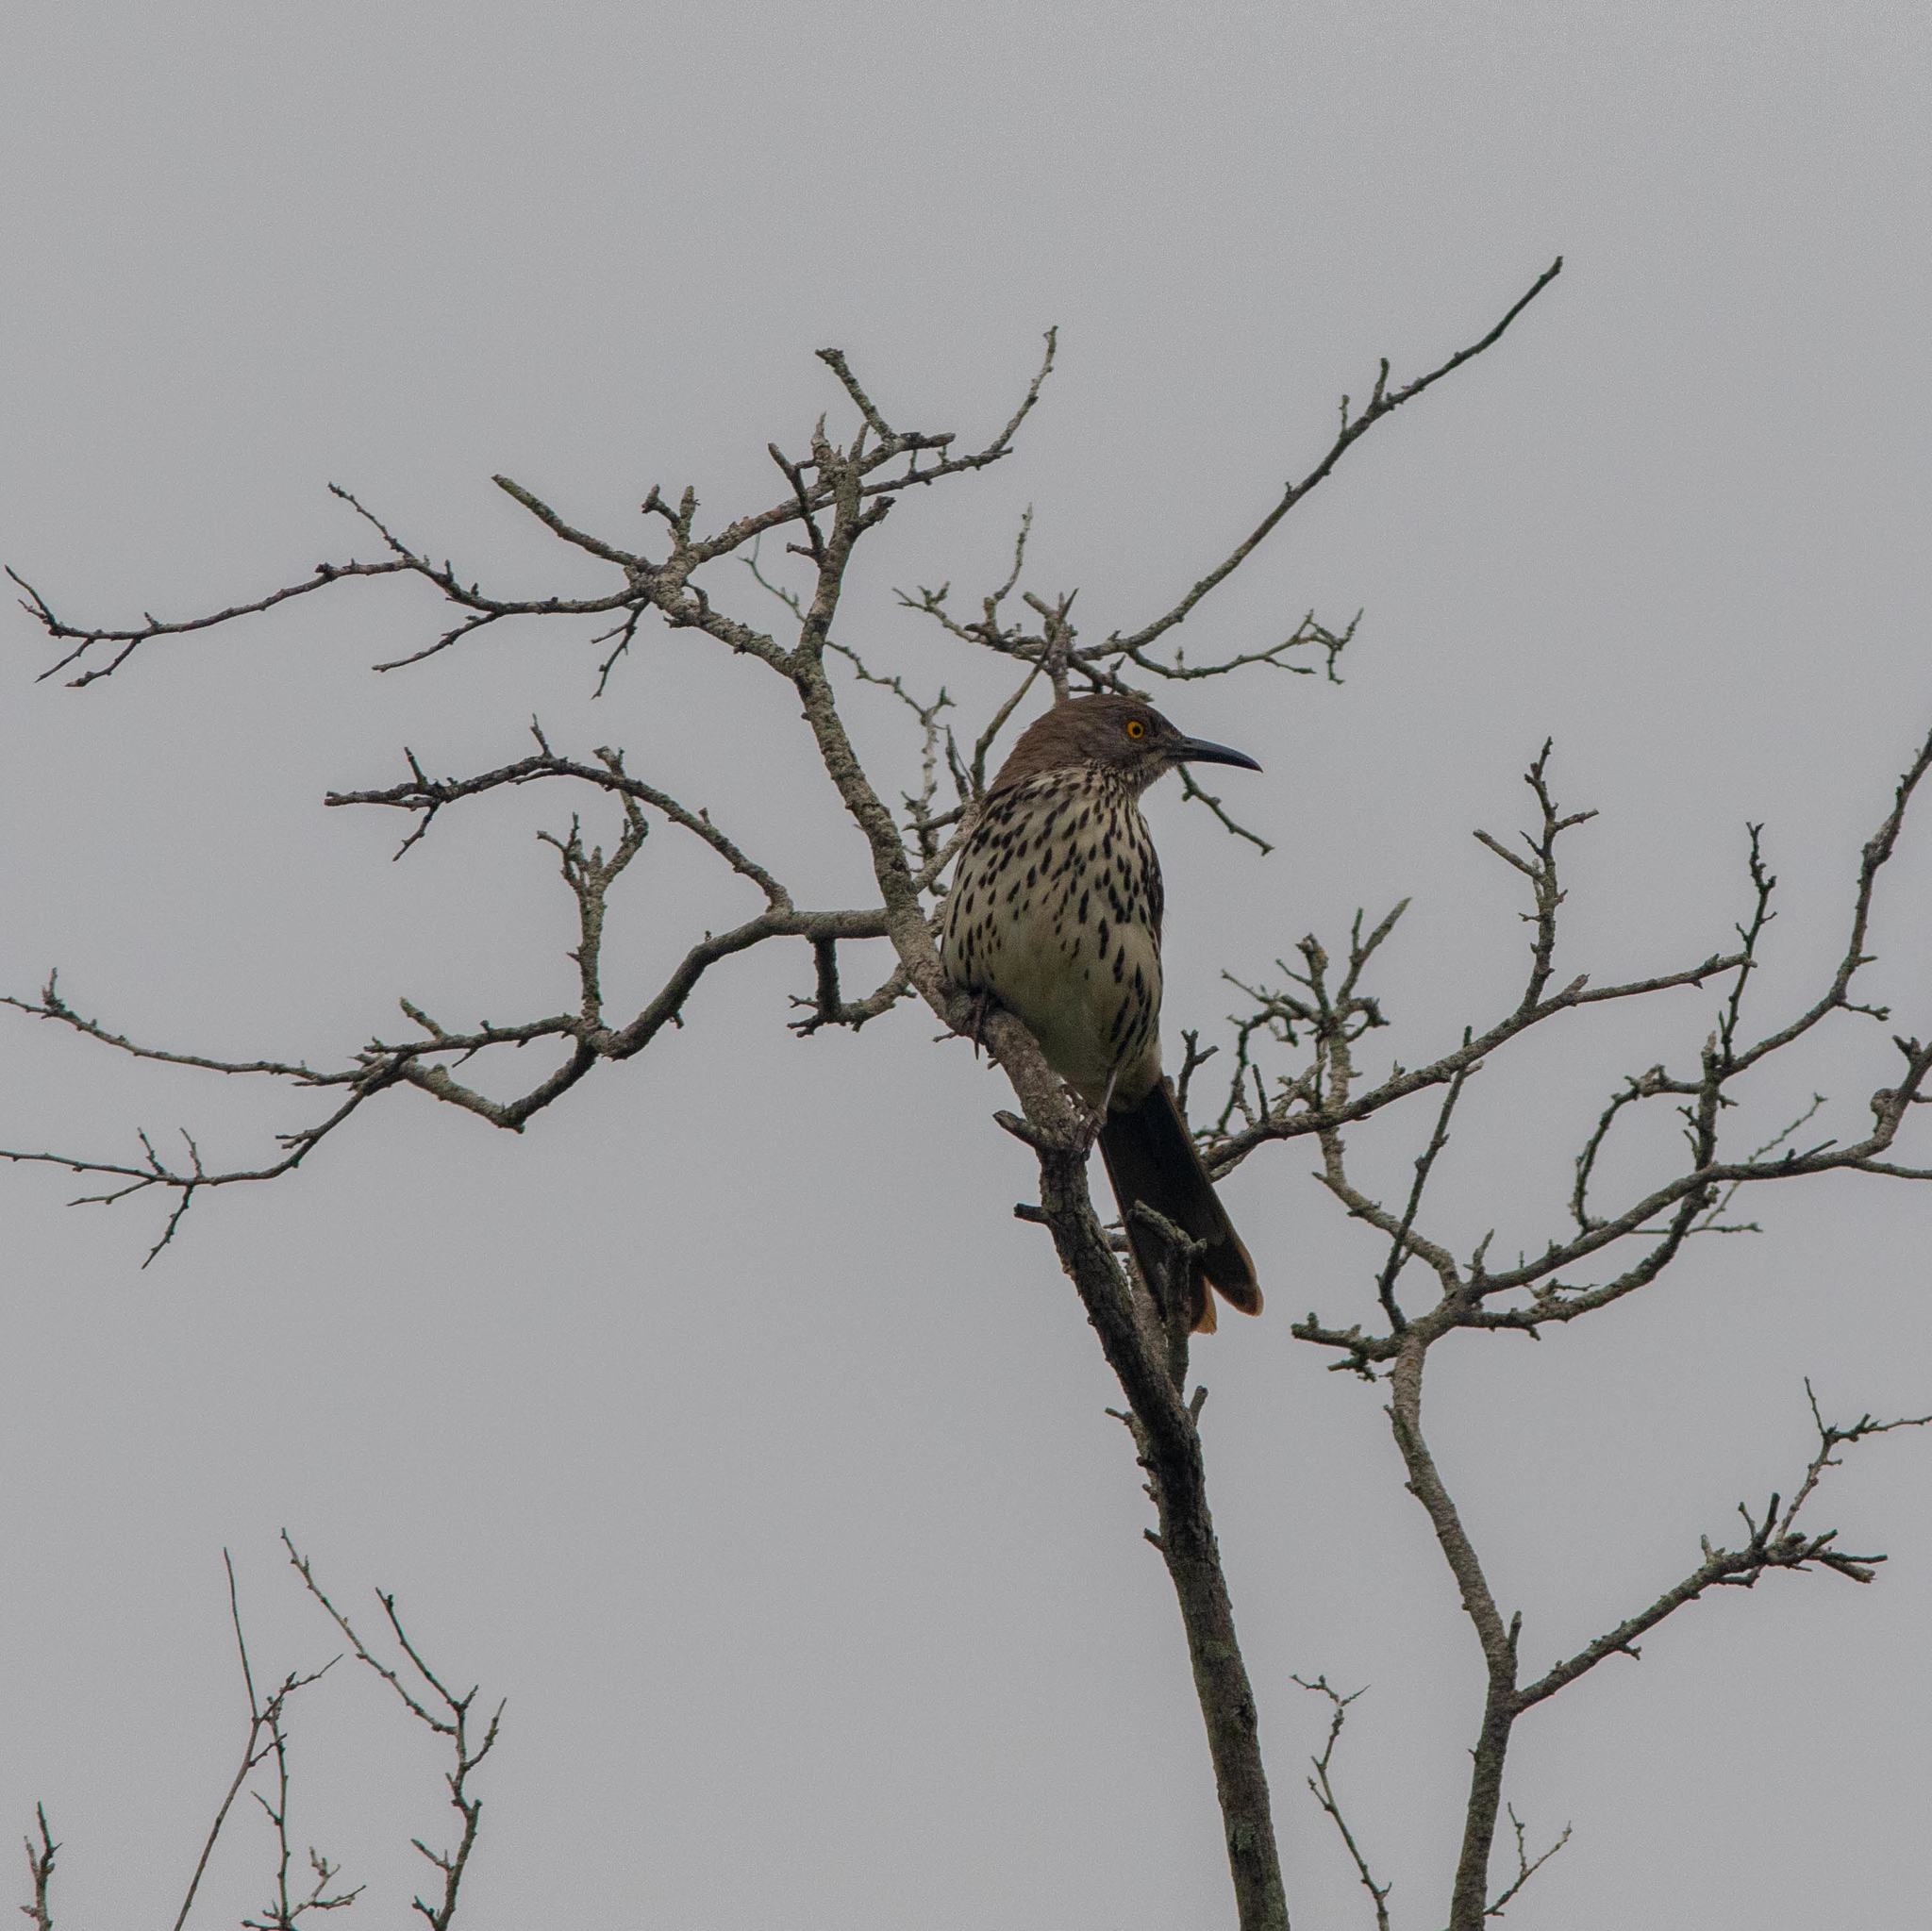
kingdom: Animalia
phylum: Chordata
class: Aves
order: Passeriformes
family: Mimidae
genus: Toxostoma
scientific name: Toxostoma longirostre
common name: Long-billed thrasher
